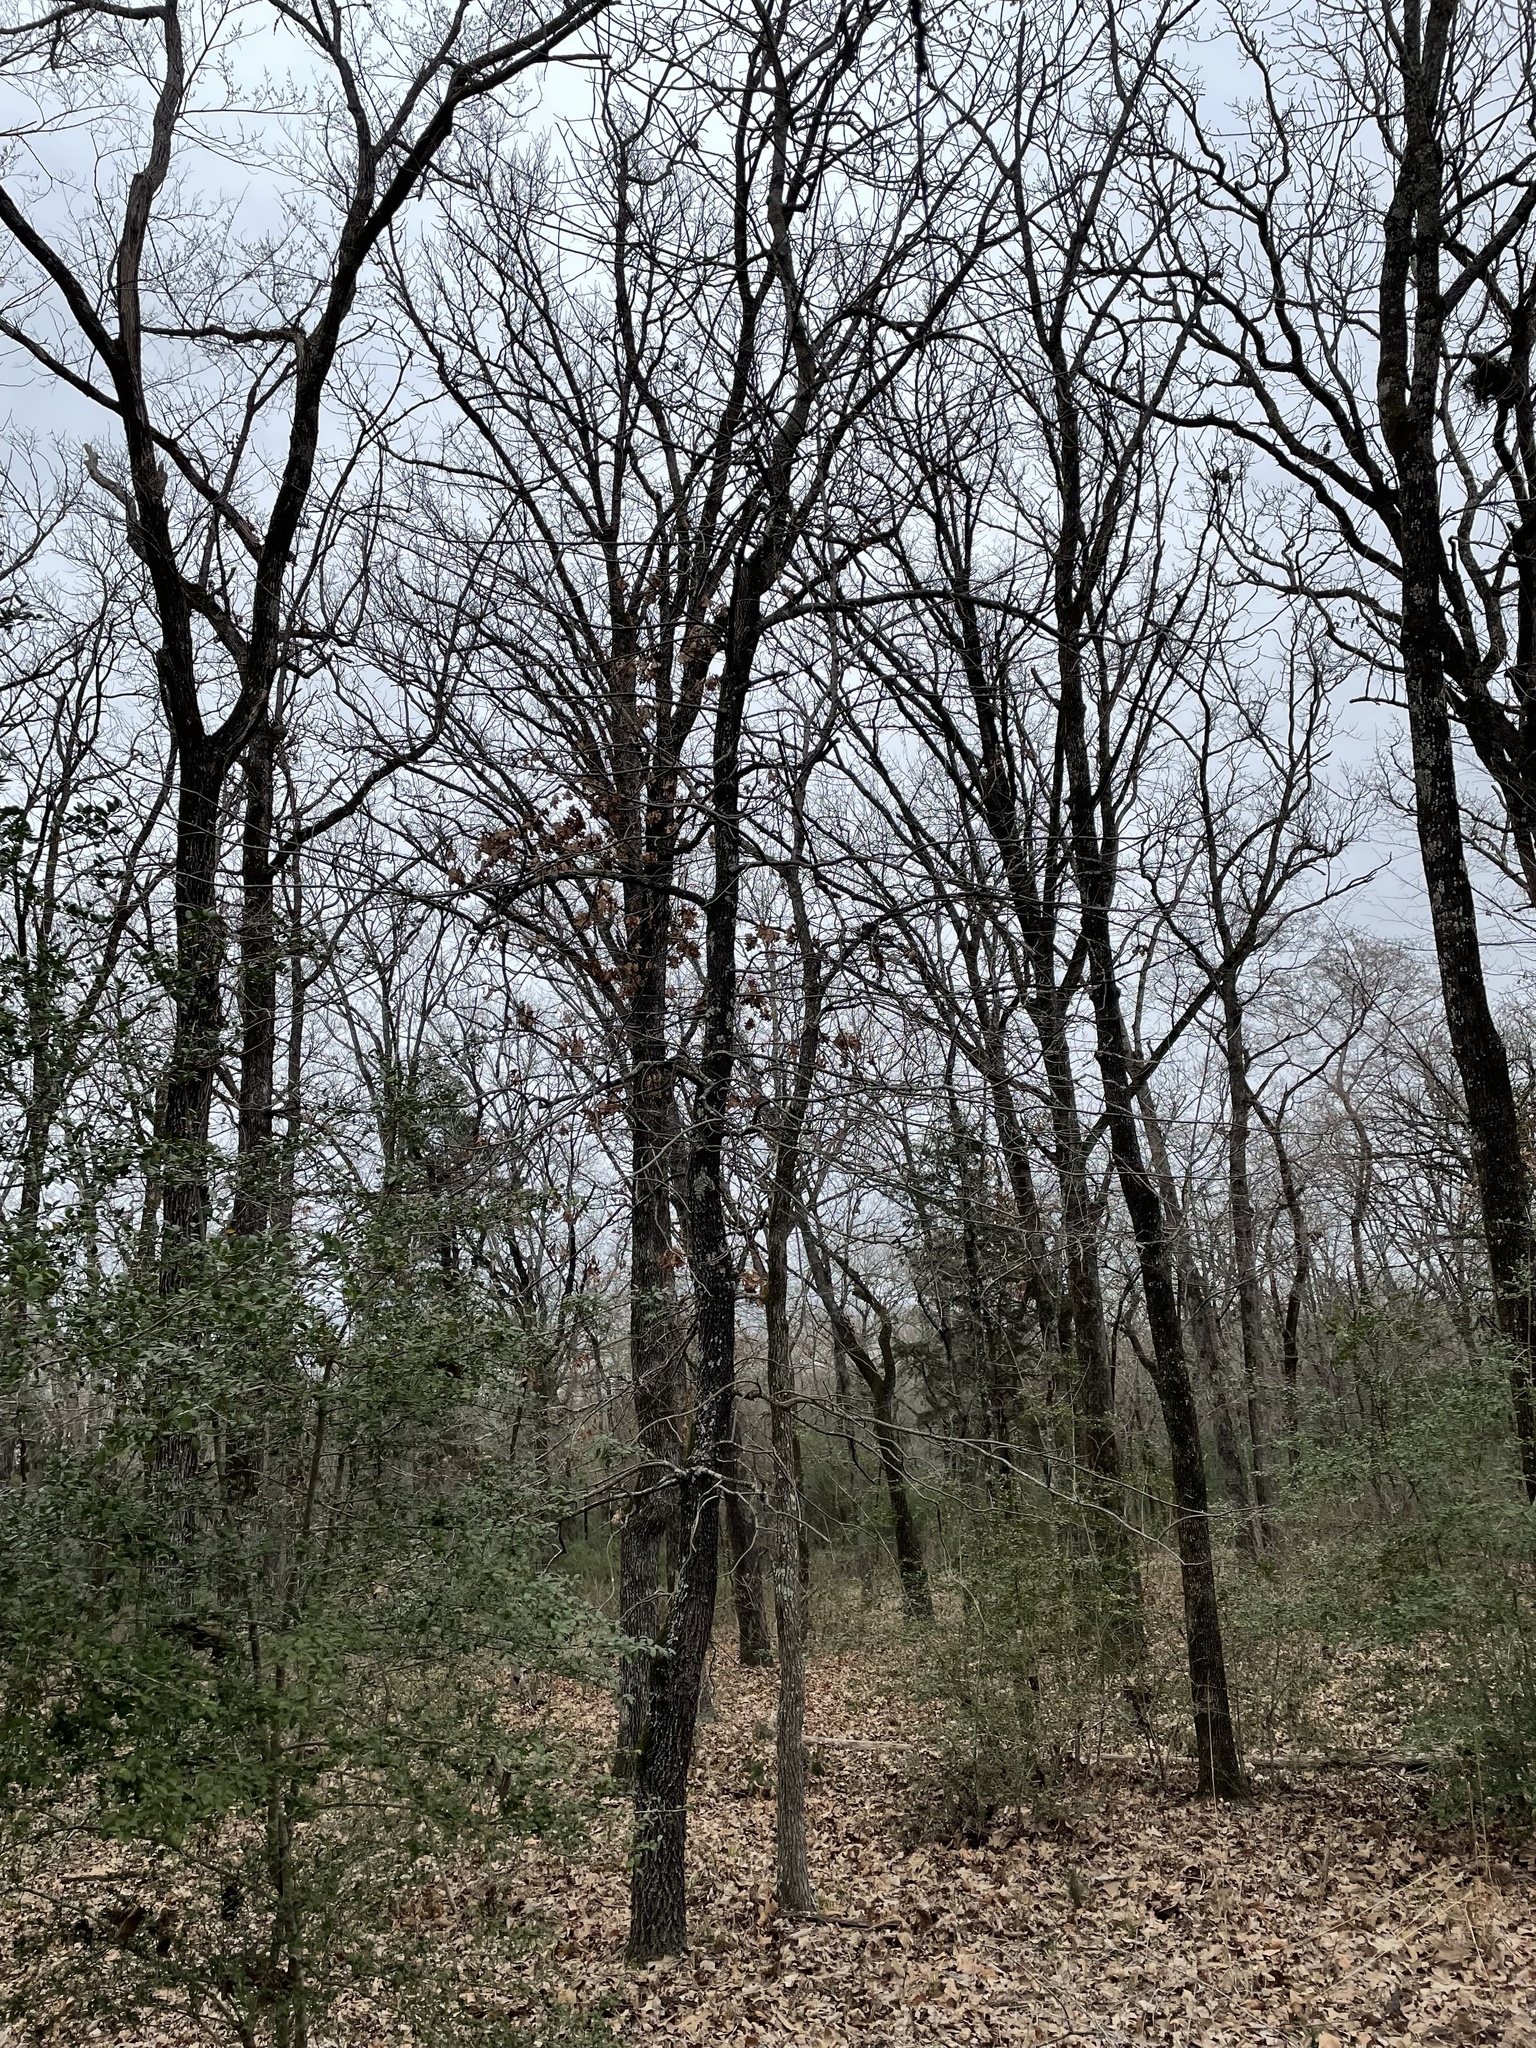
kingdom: Plantae
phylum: Tracheophyta
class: Magnoliopsida
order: Fagales
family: Juglandaceae
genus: Carya
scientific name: Carya texana
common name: Black hickory
